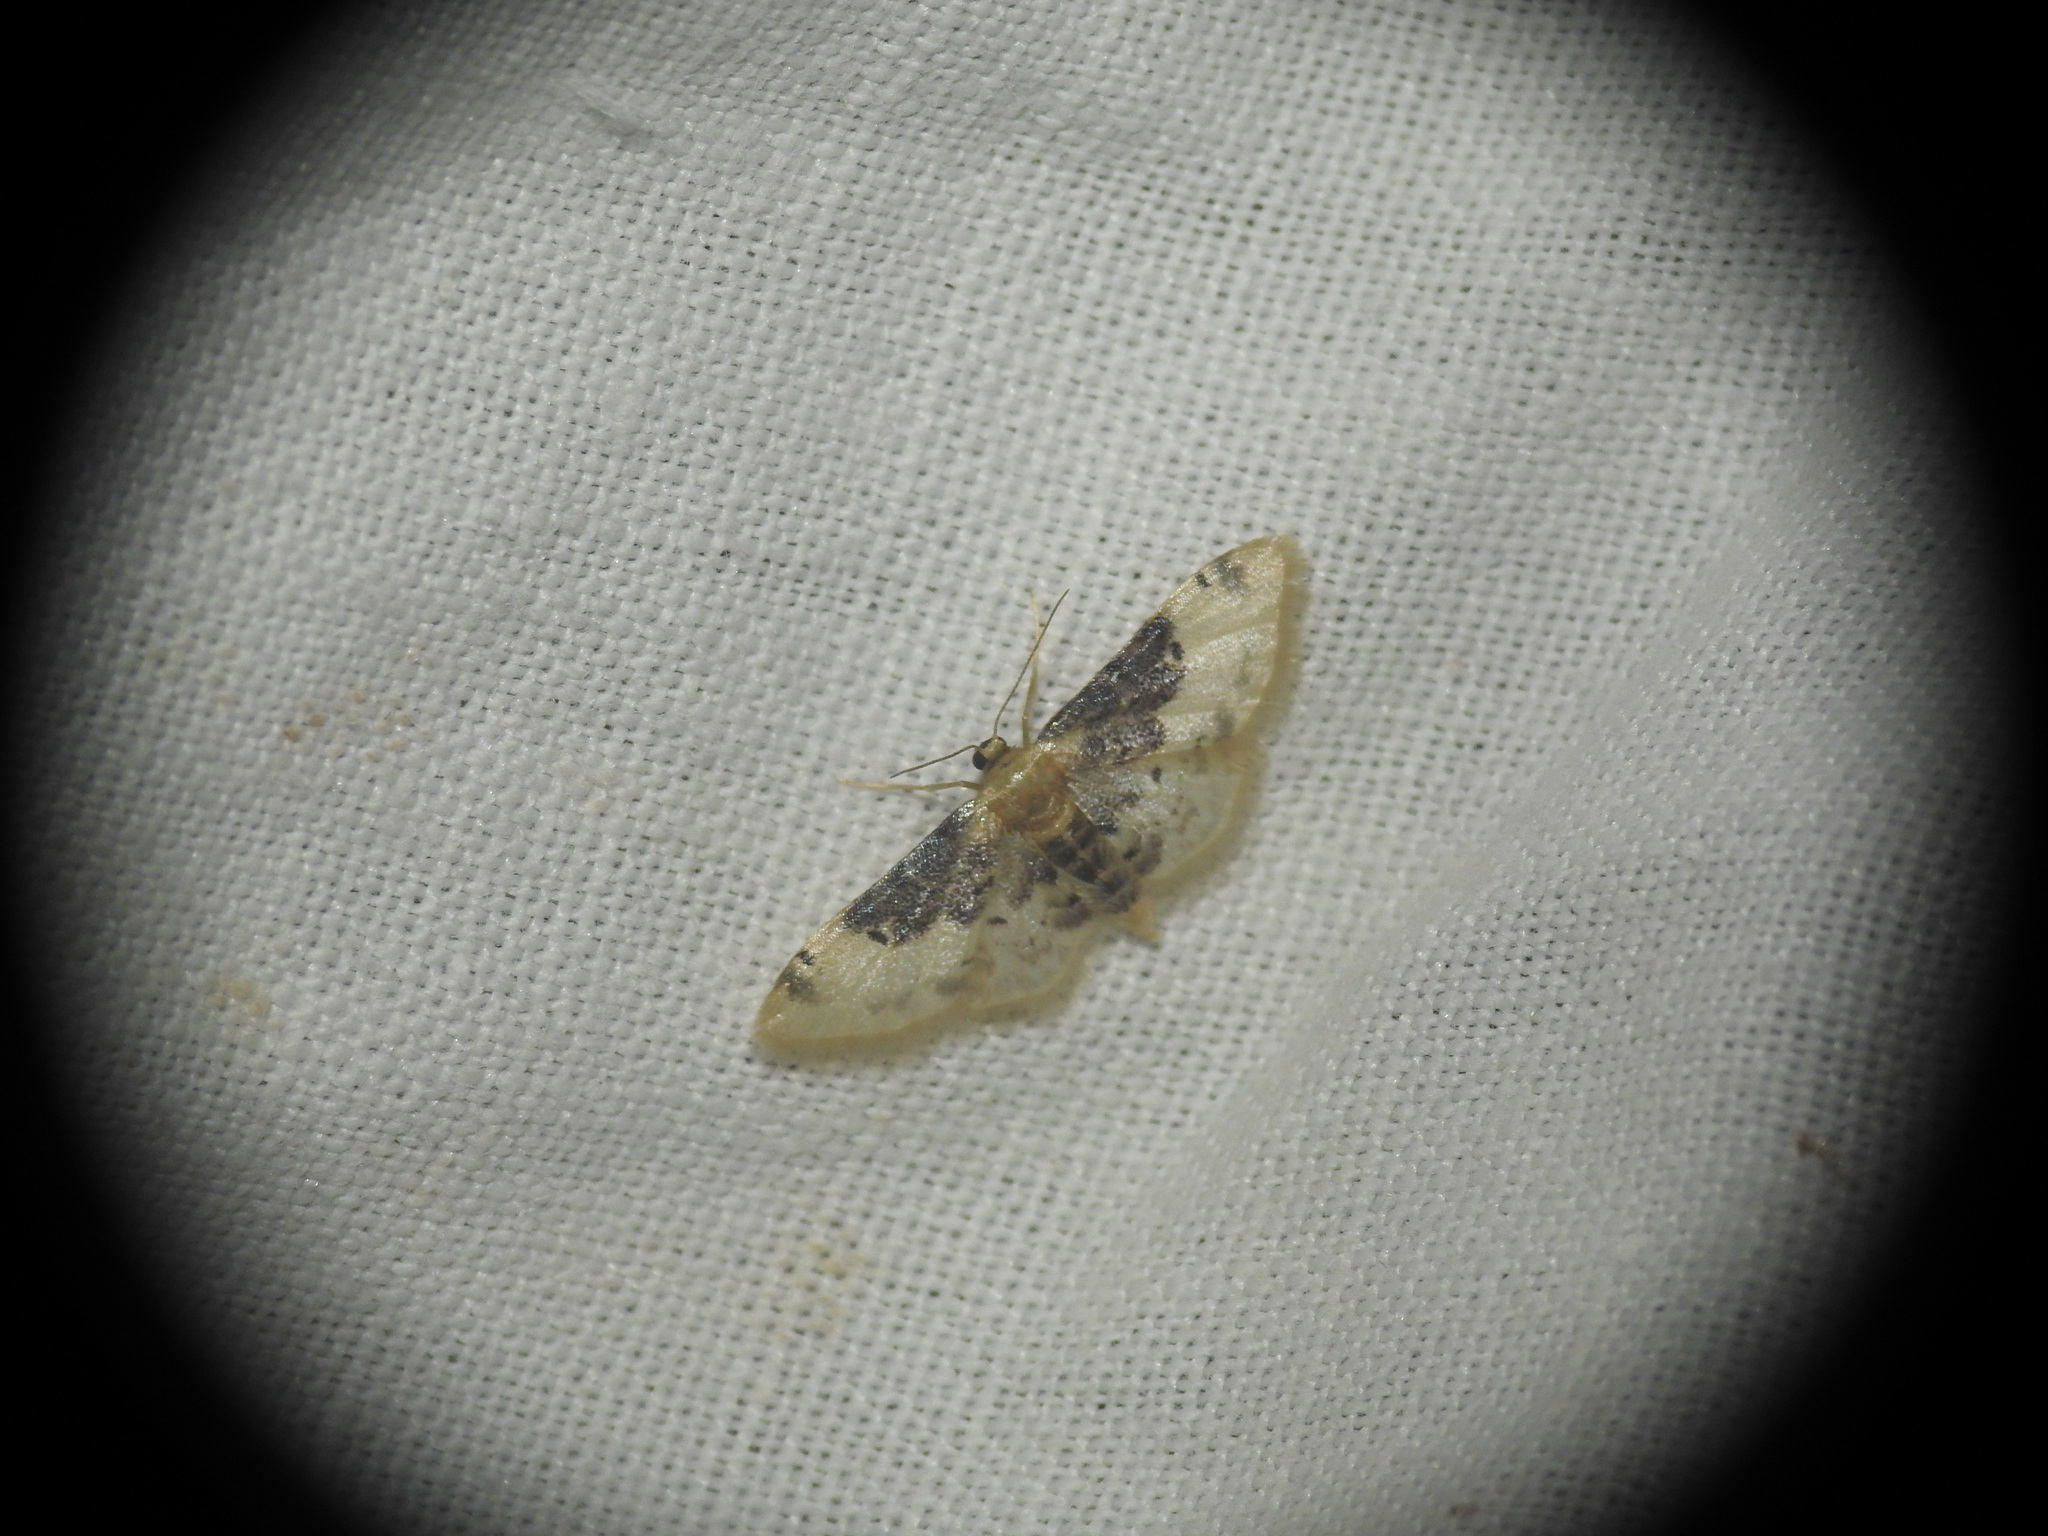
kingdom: Animalia
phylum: Arthropoda
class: Insecta
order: Lepidoptera
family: Geometridae
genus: Idaea
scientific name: Idaea filicata
